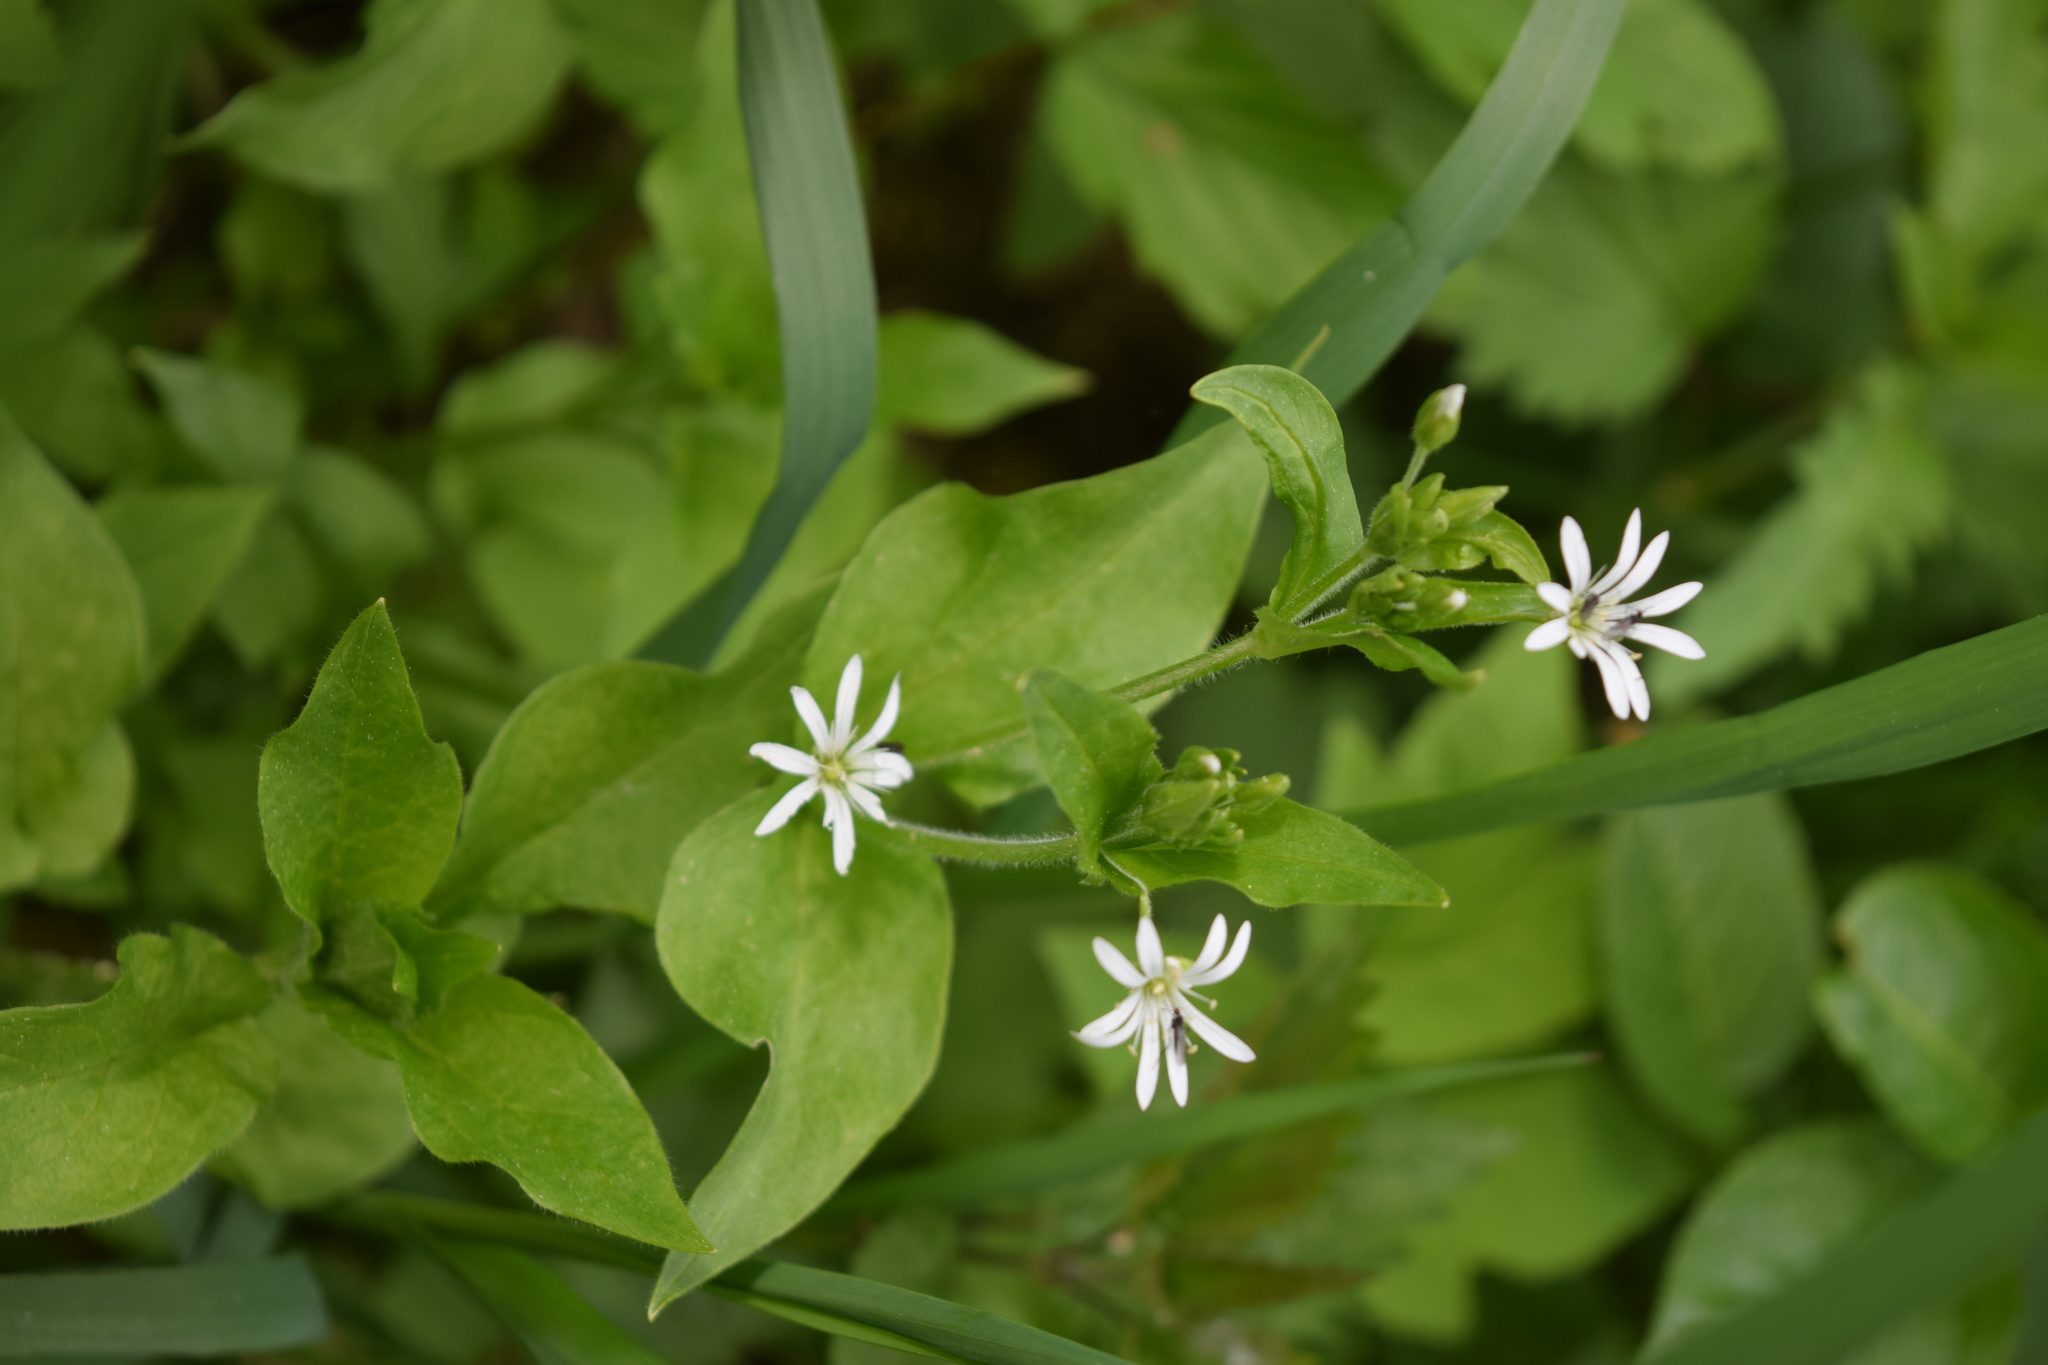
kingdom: Plantae
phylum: Tracheophyta
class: Magnoliopsida
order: Caryophyllales
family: Caryophyllaceae
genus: Stellaria
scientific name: Stellaria nemorum
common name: Wood stitchwort
